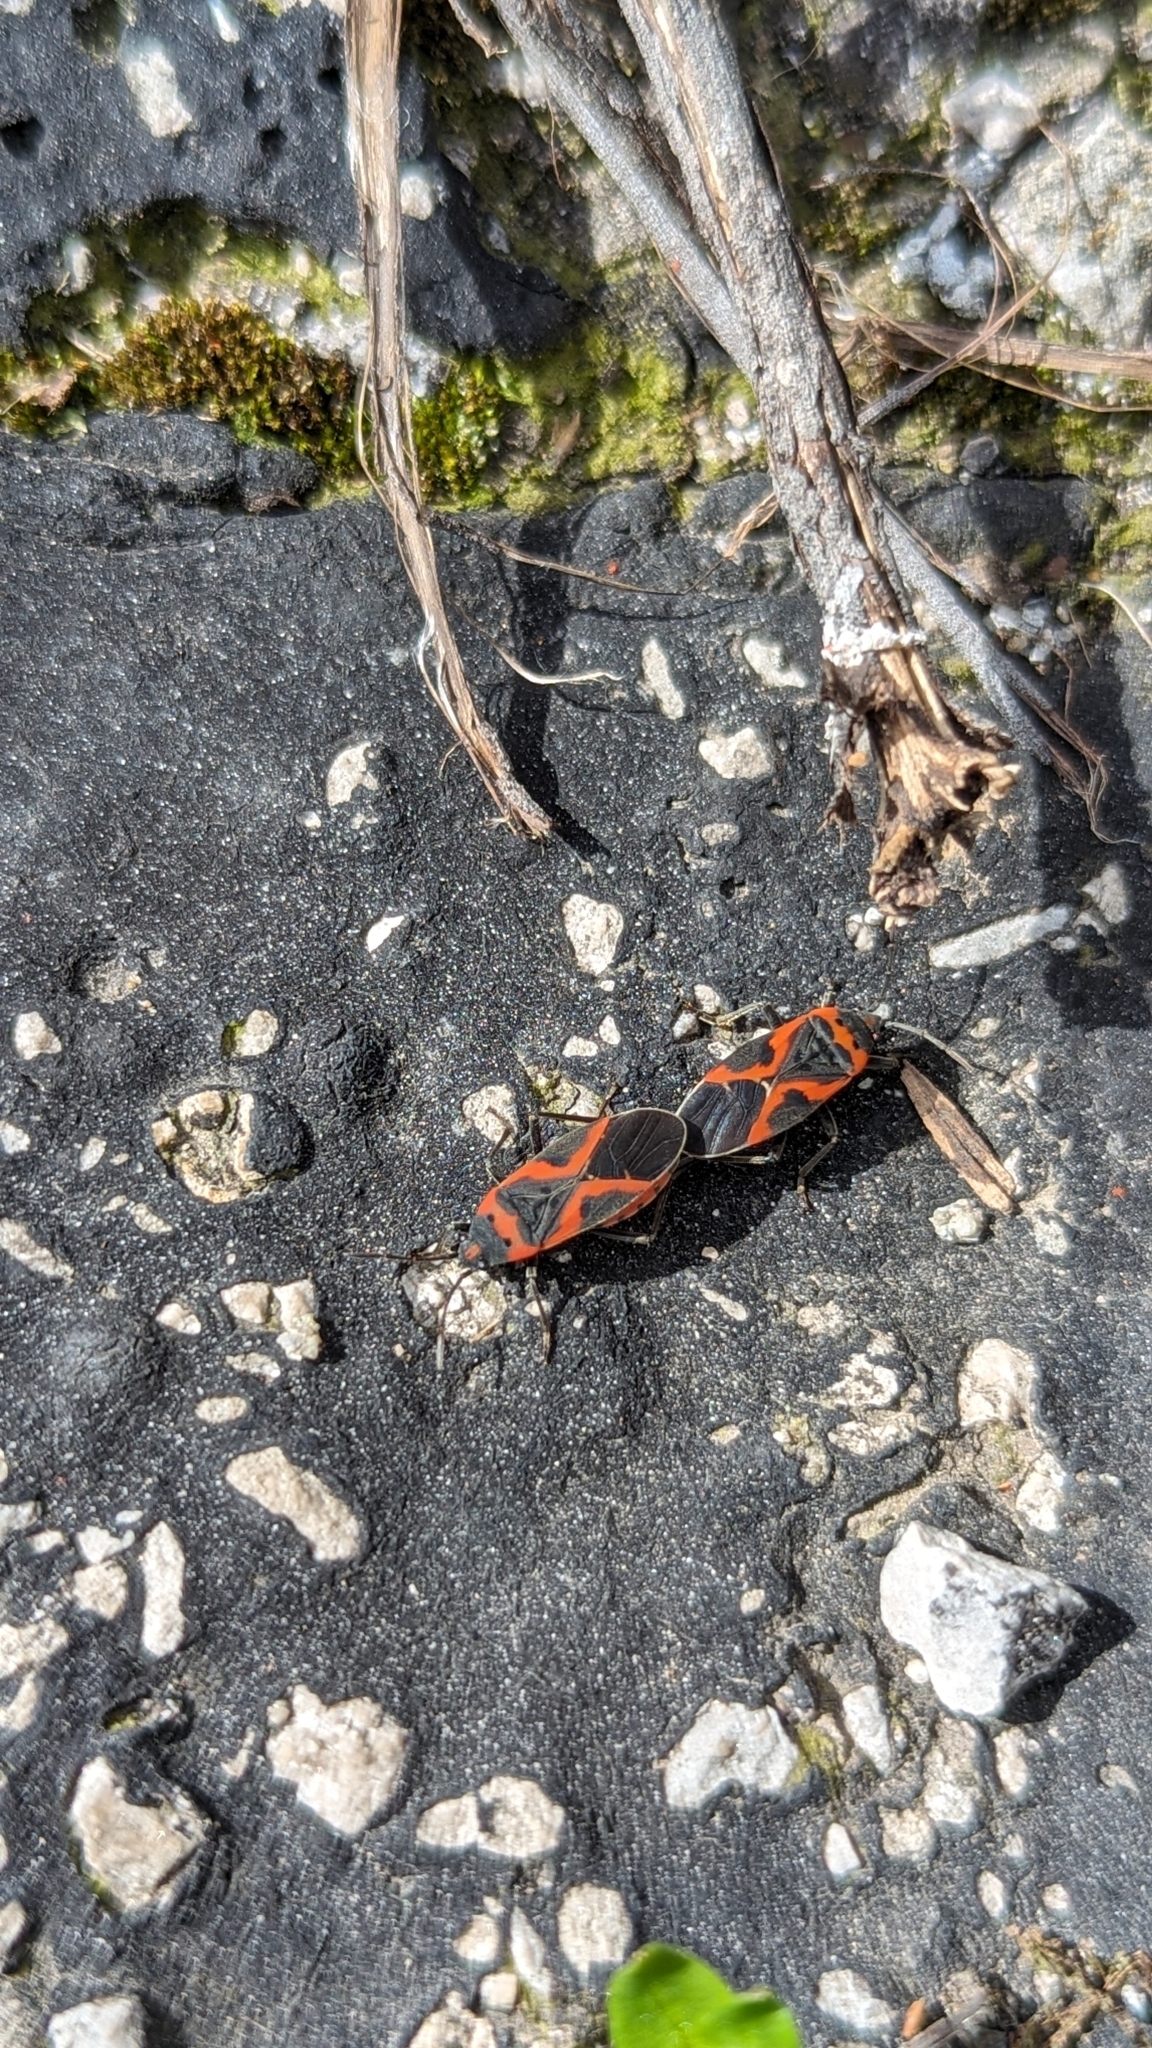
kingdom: Animalia
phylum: Arthropoda
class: Insecta
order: Hemiptera
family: Lygaeidae
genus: Lygaeus
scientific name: Lygaeus kalmii
